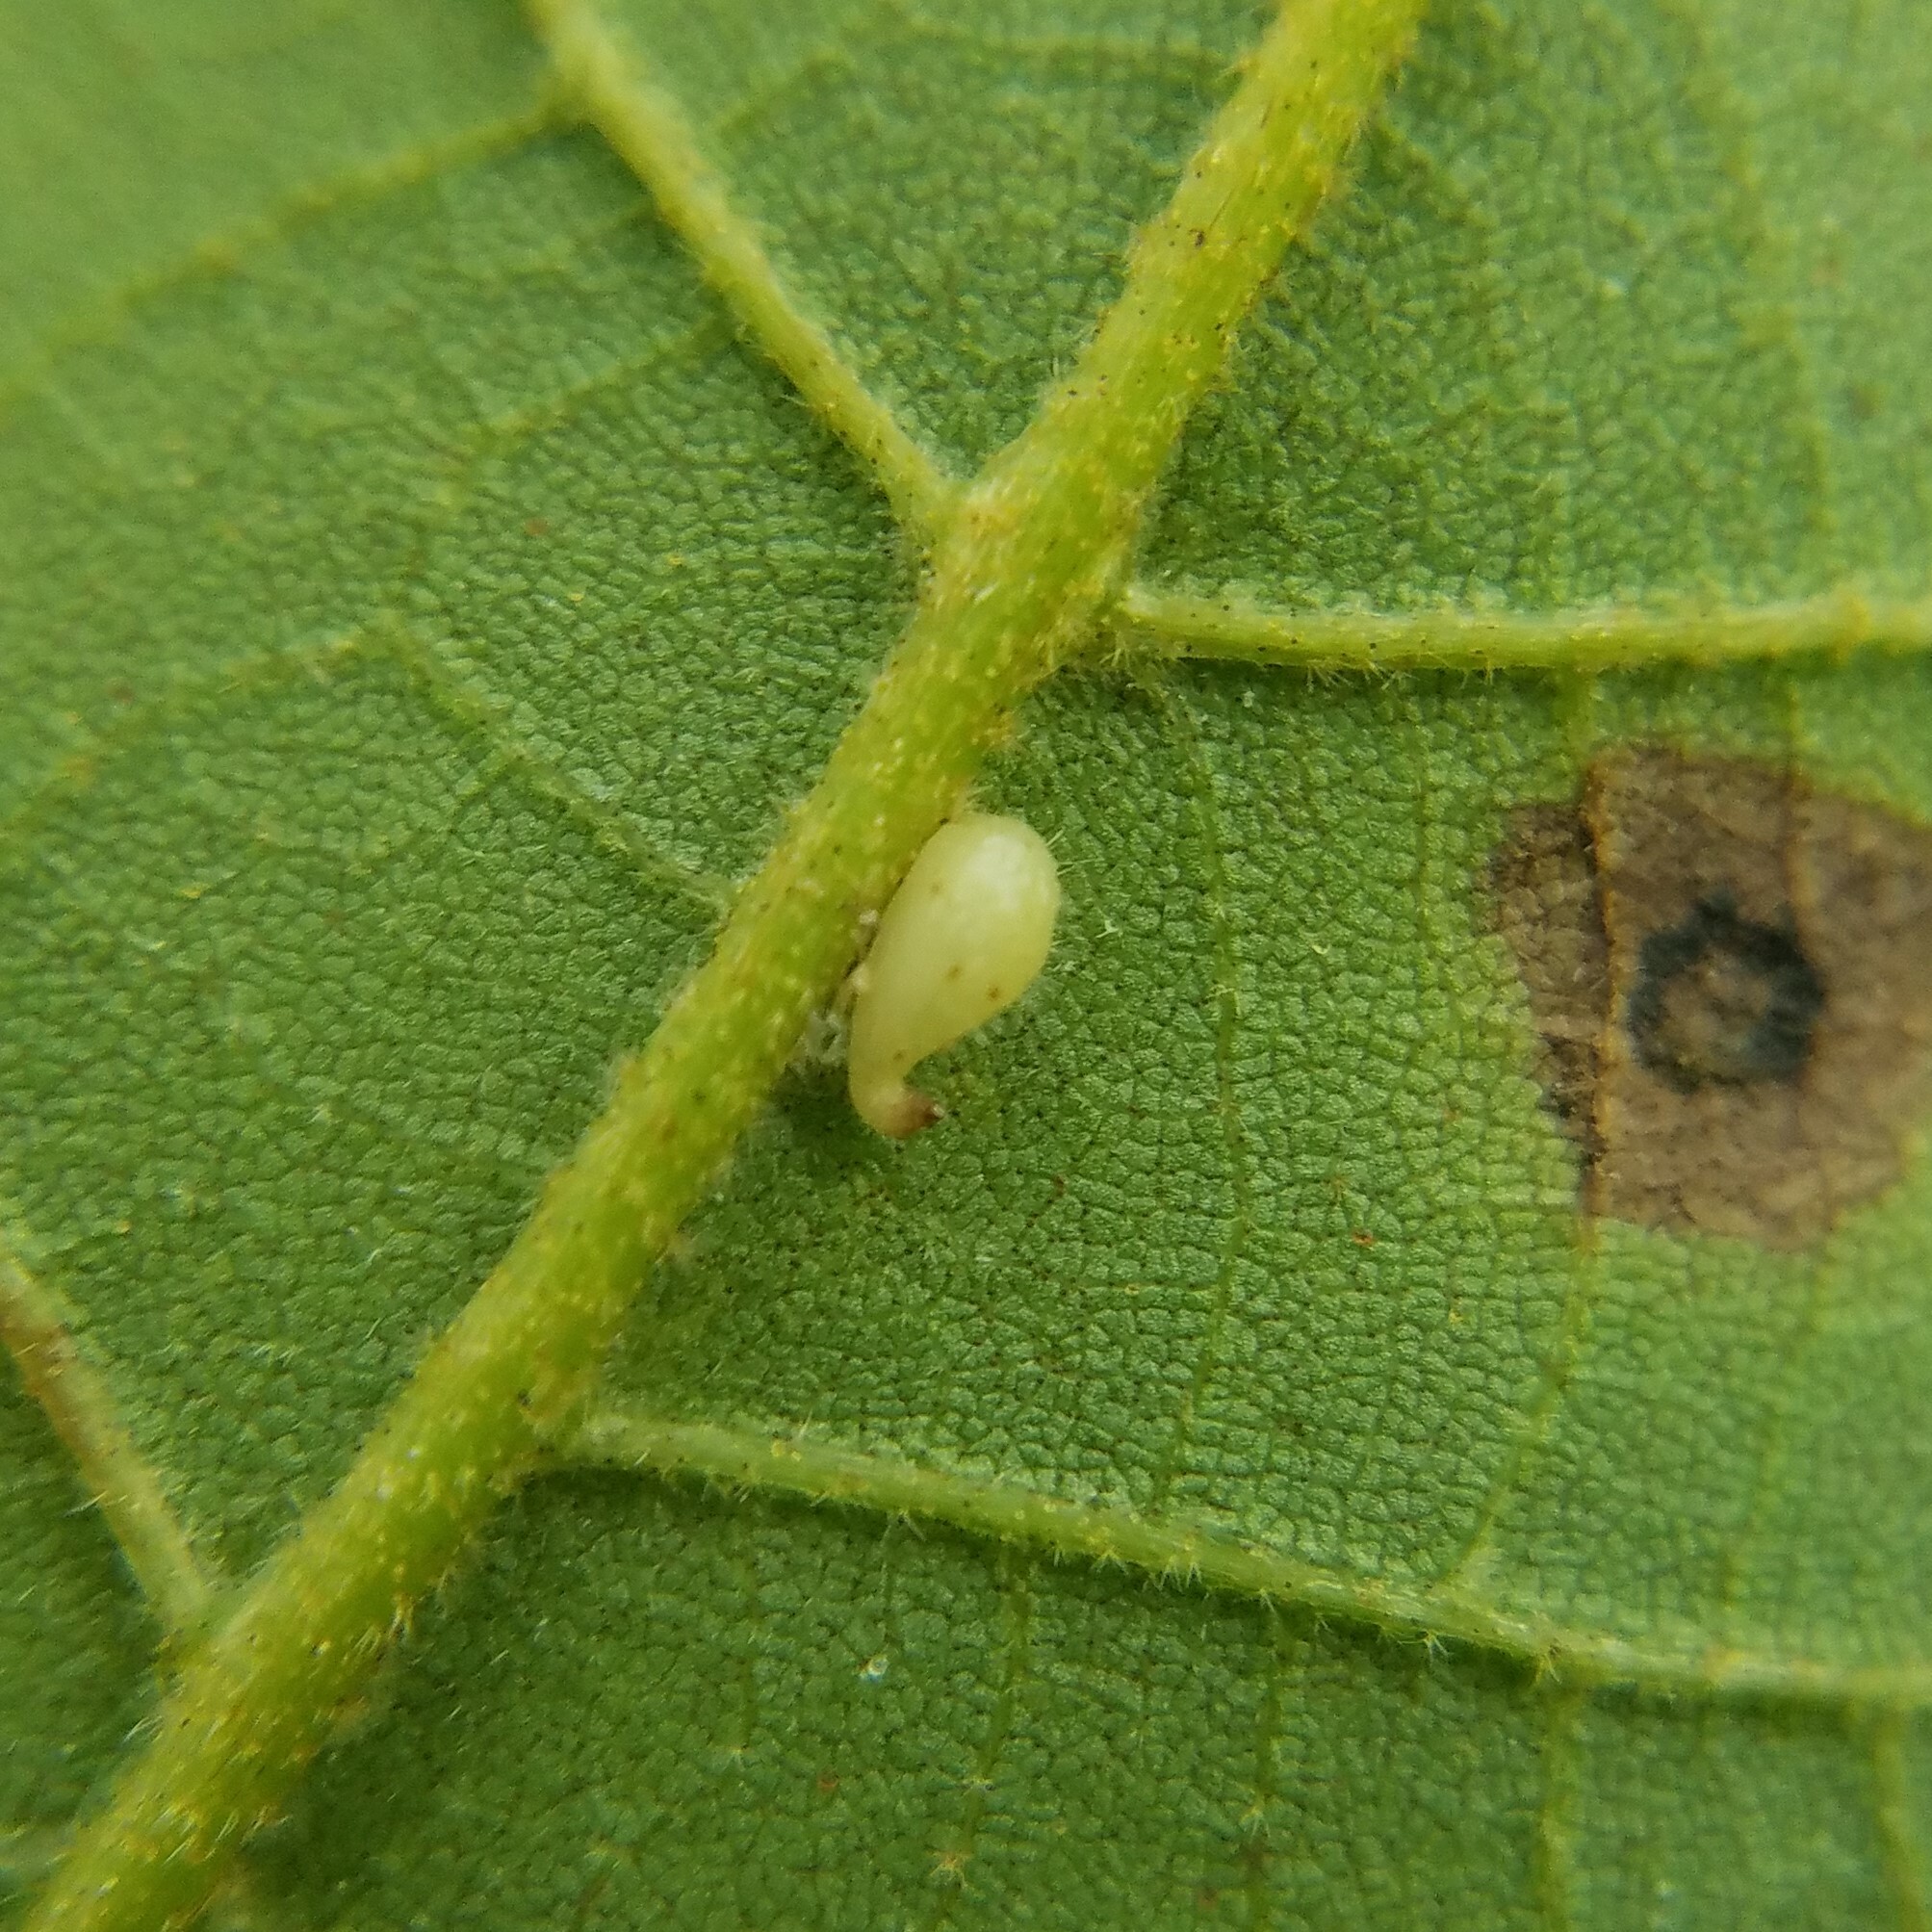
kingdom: Animalia
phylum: Arthropoda
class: Insecta
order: Diptera
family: Cecidomyiidae
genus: Caryomyia
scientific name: Caryomyia eumaris
